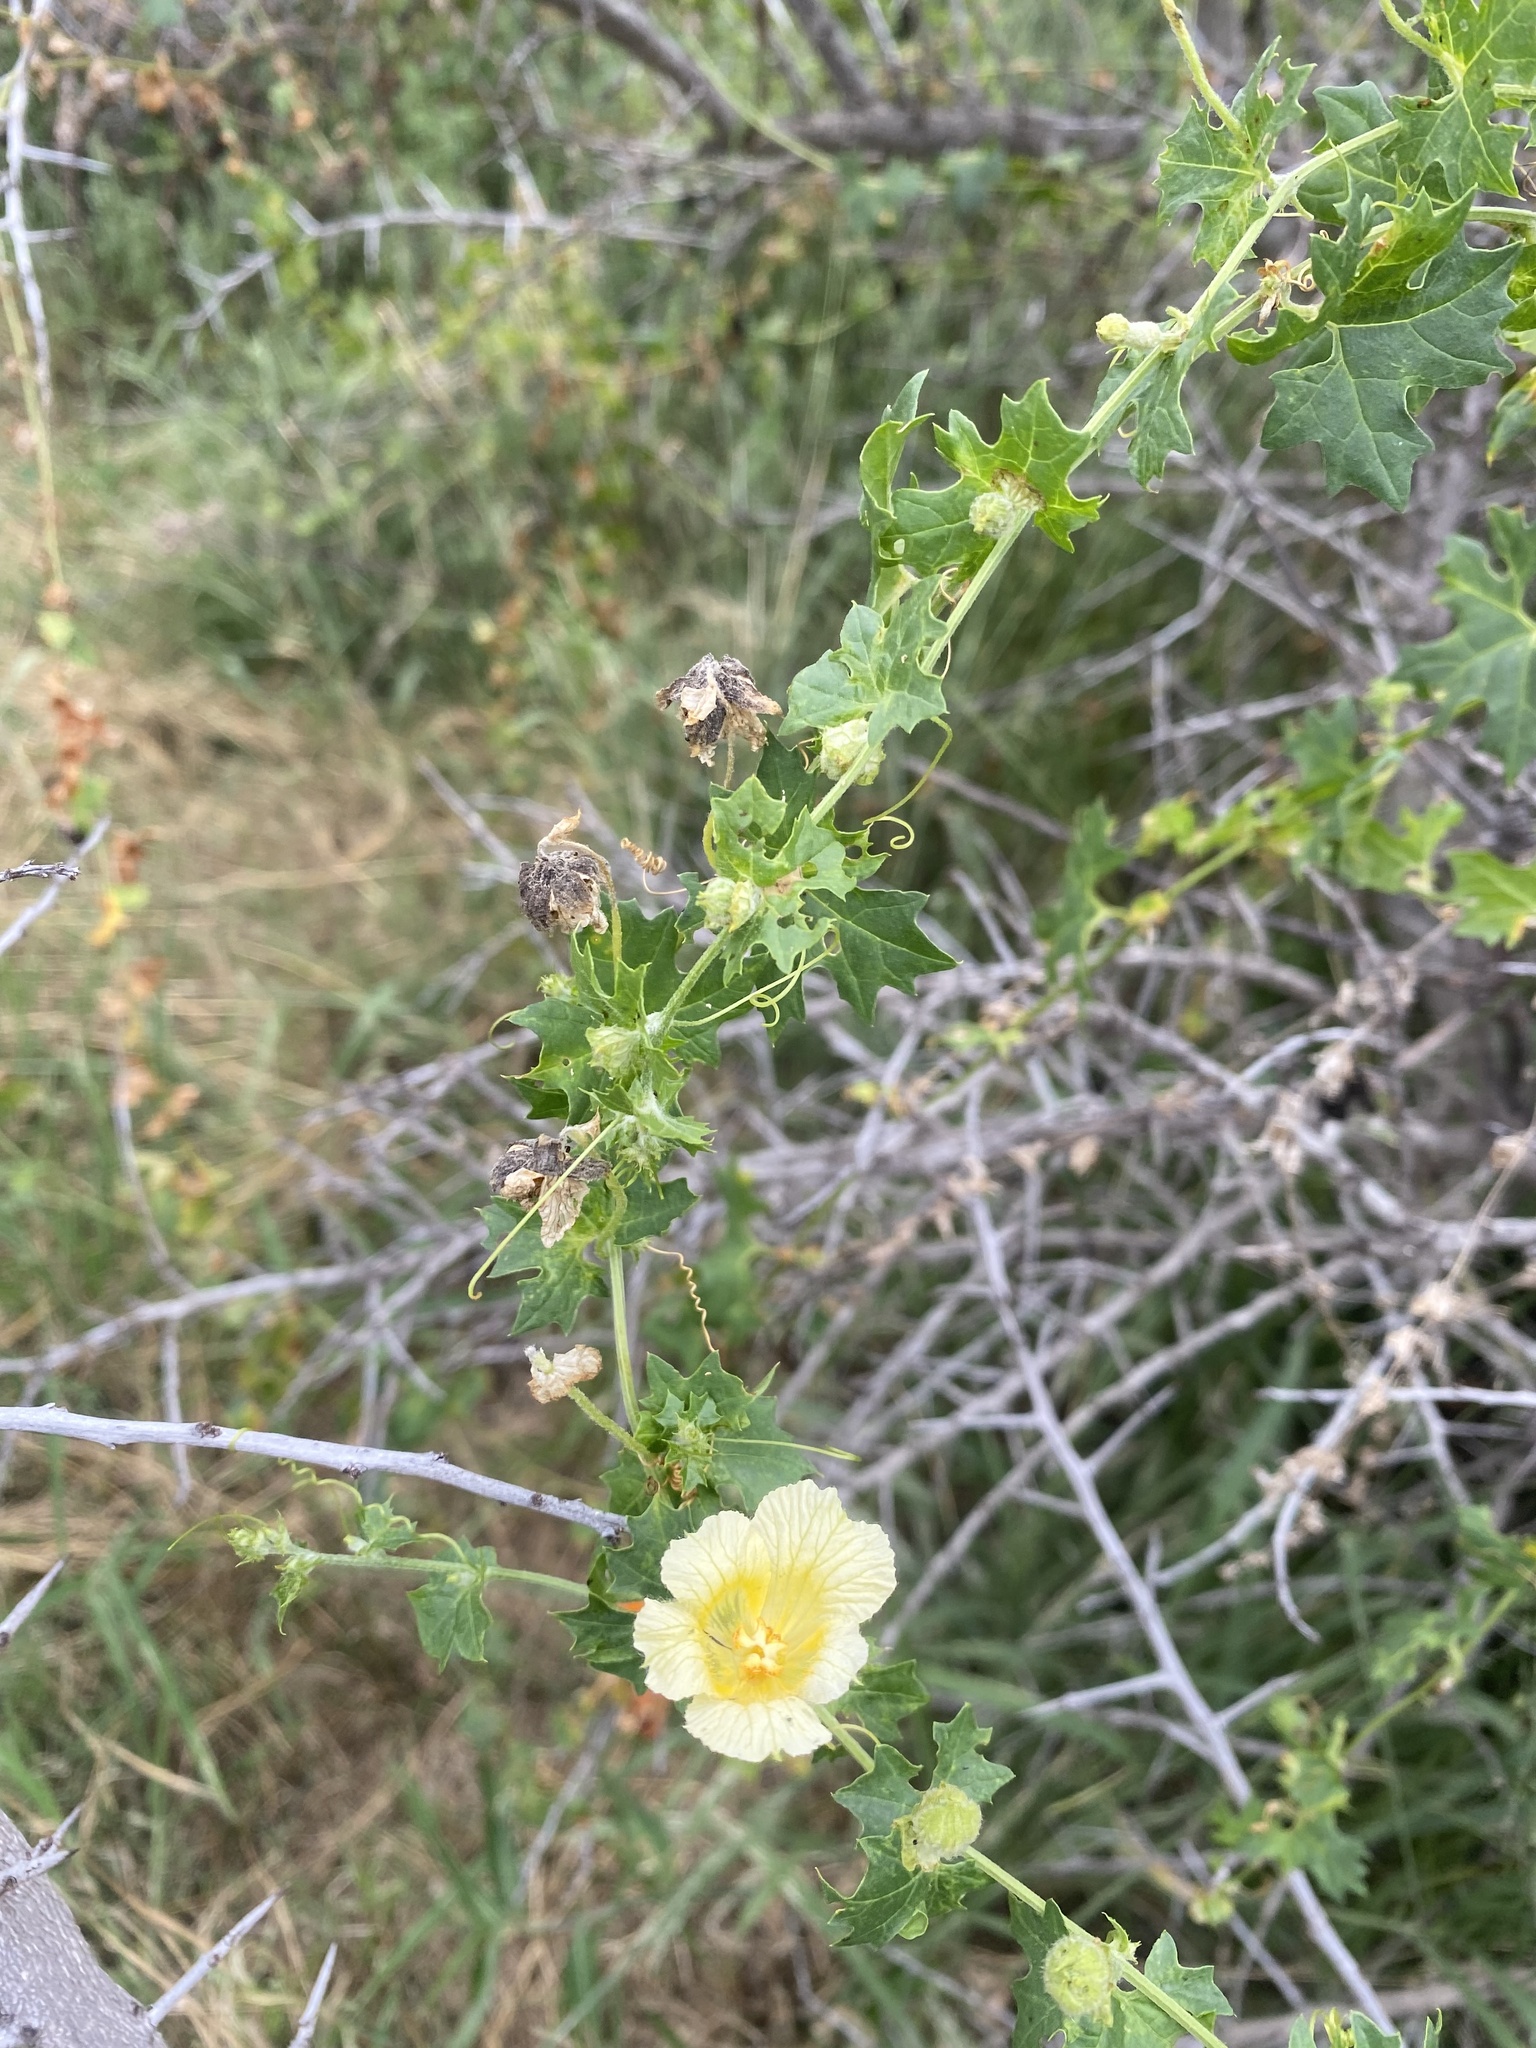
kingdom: Plantae
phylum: Tracheophyta
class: Magnoliopsida
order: Cucurbitales
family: Cucurbitaceae
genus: Momordica
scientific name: Momordica balsamina
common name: Southern balsampear
